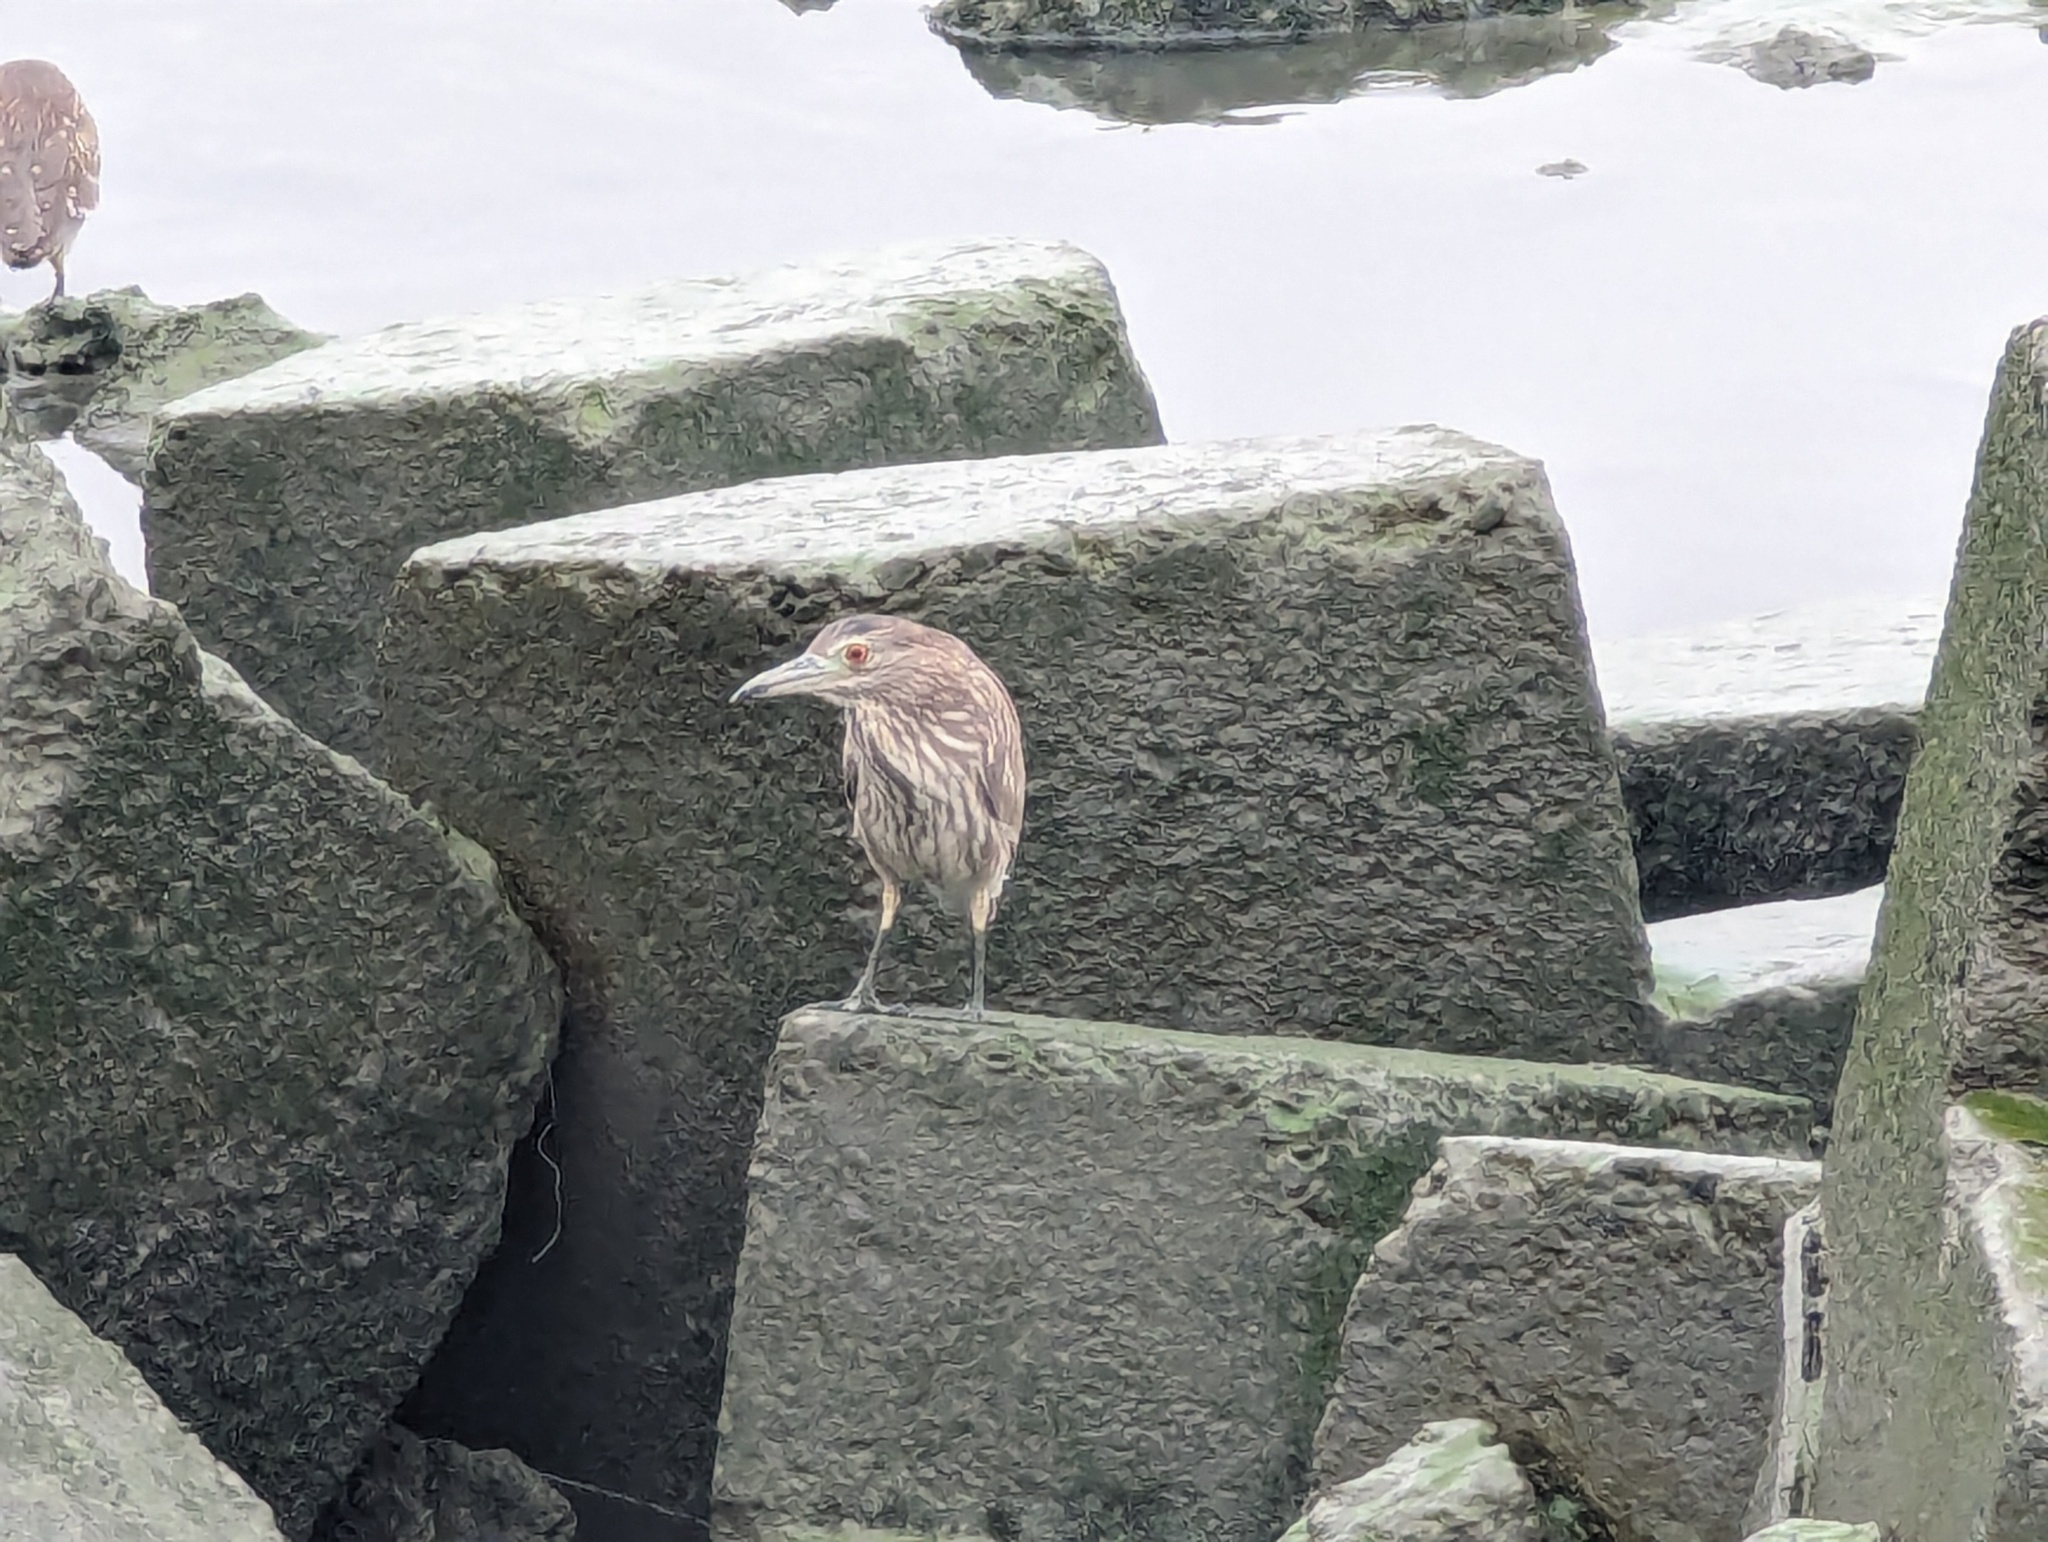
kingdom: Animalia
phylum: Chordata
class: Aves
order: Pelecaniformes
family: Ardeidae
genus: Nycticorax
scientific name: Nycticorax nycticorax
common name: Black-crowned night heron
